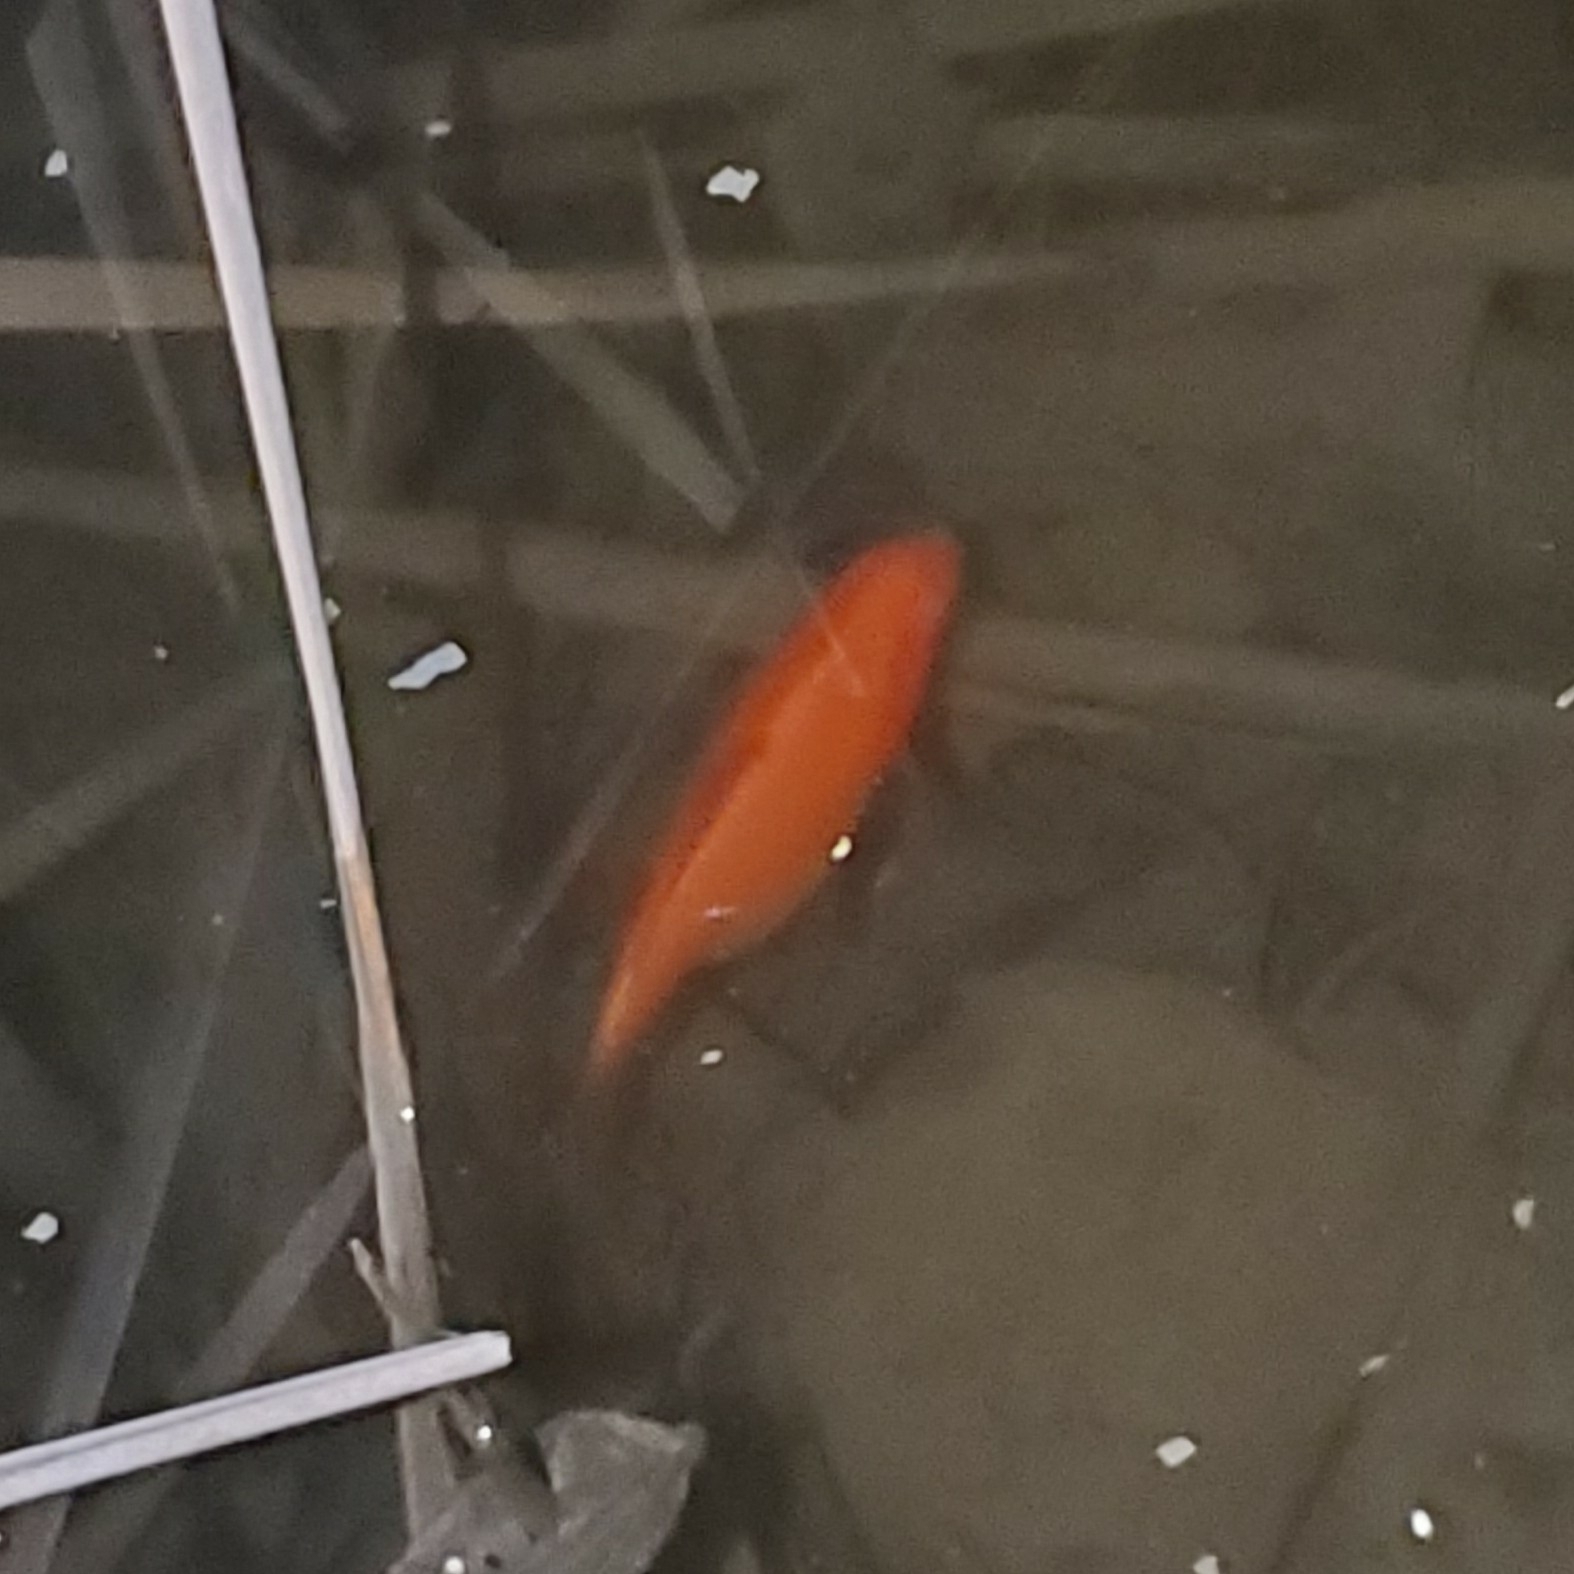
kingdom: Animalia
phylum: Chordata
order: Cypriniformes
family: Cyprinidae
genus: Carassius
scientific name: Carassius auratus
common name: Goldfish
